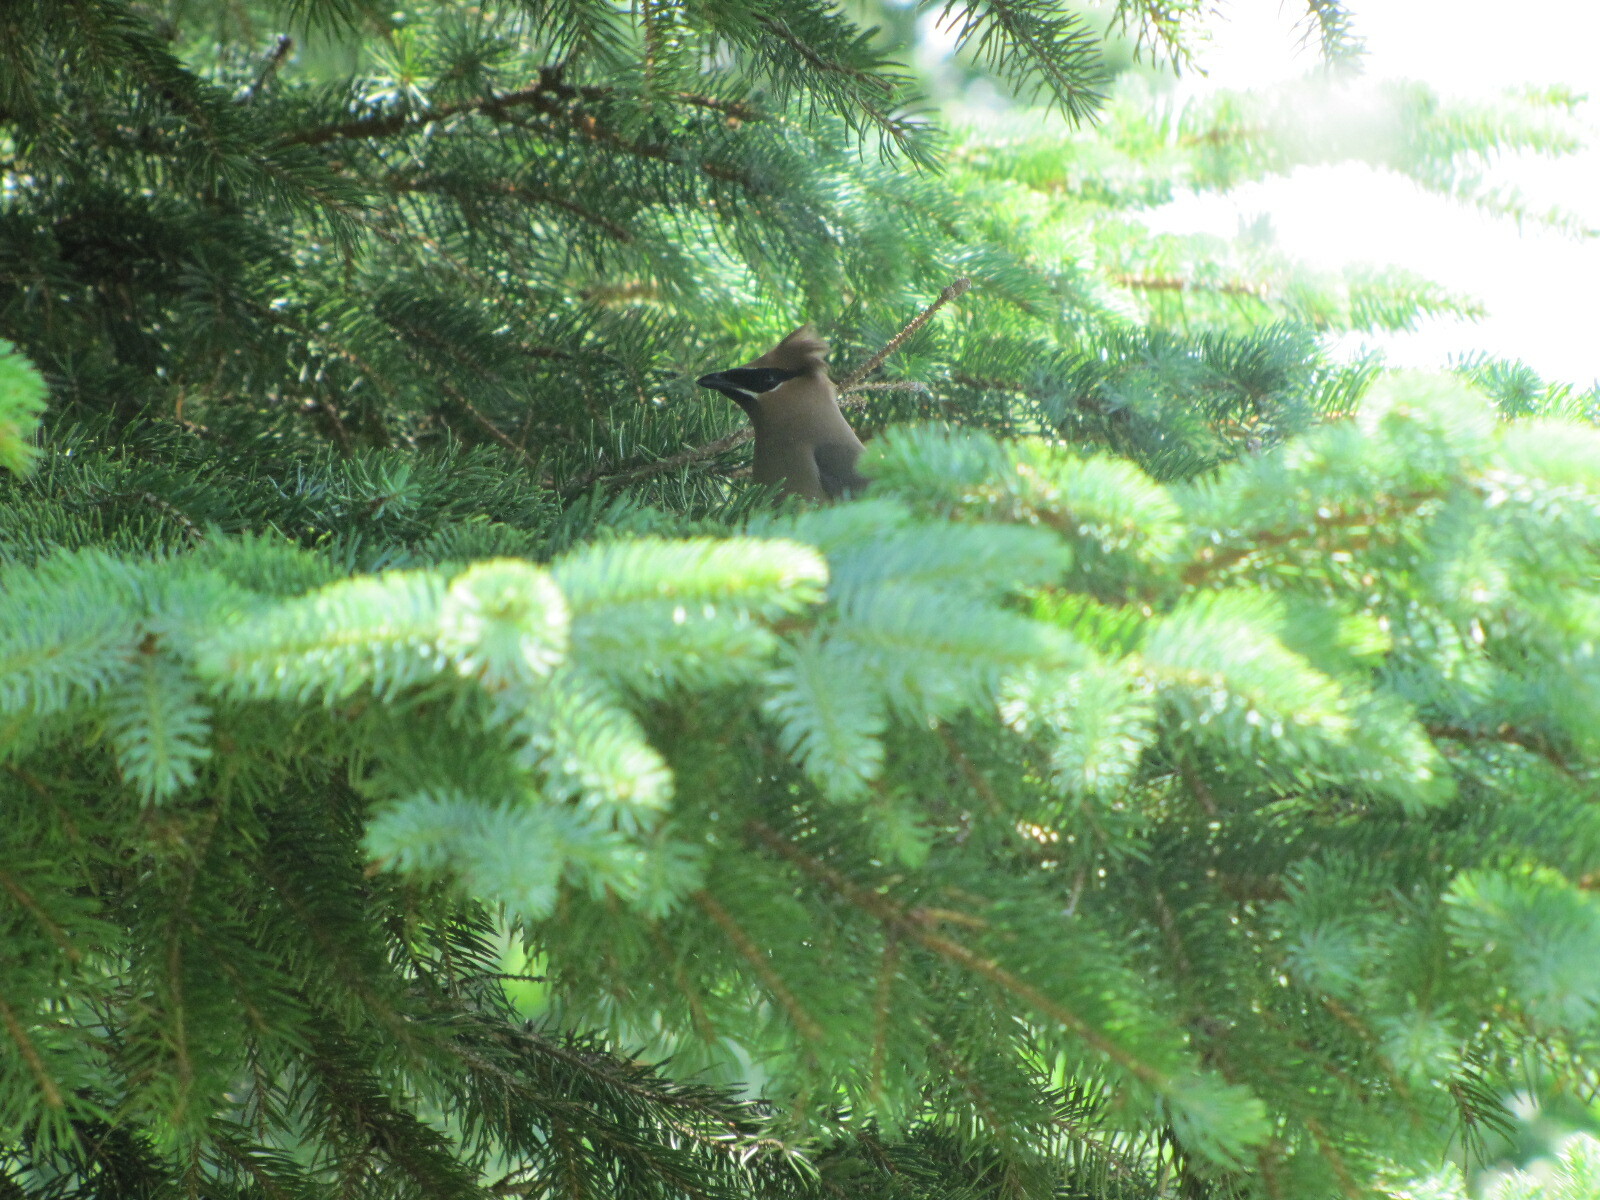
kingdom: Animalia
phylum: Chordata
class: Aves
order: Passeriformes
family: Bombycillidae
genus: Bombycilla
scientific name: Bombycilla cedrorum
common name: Cedar waxwing
